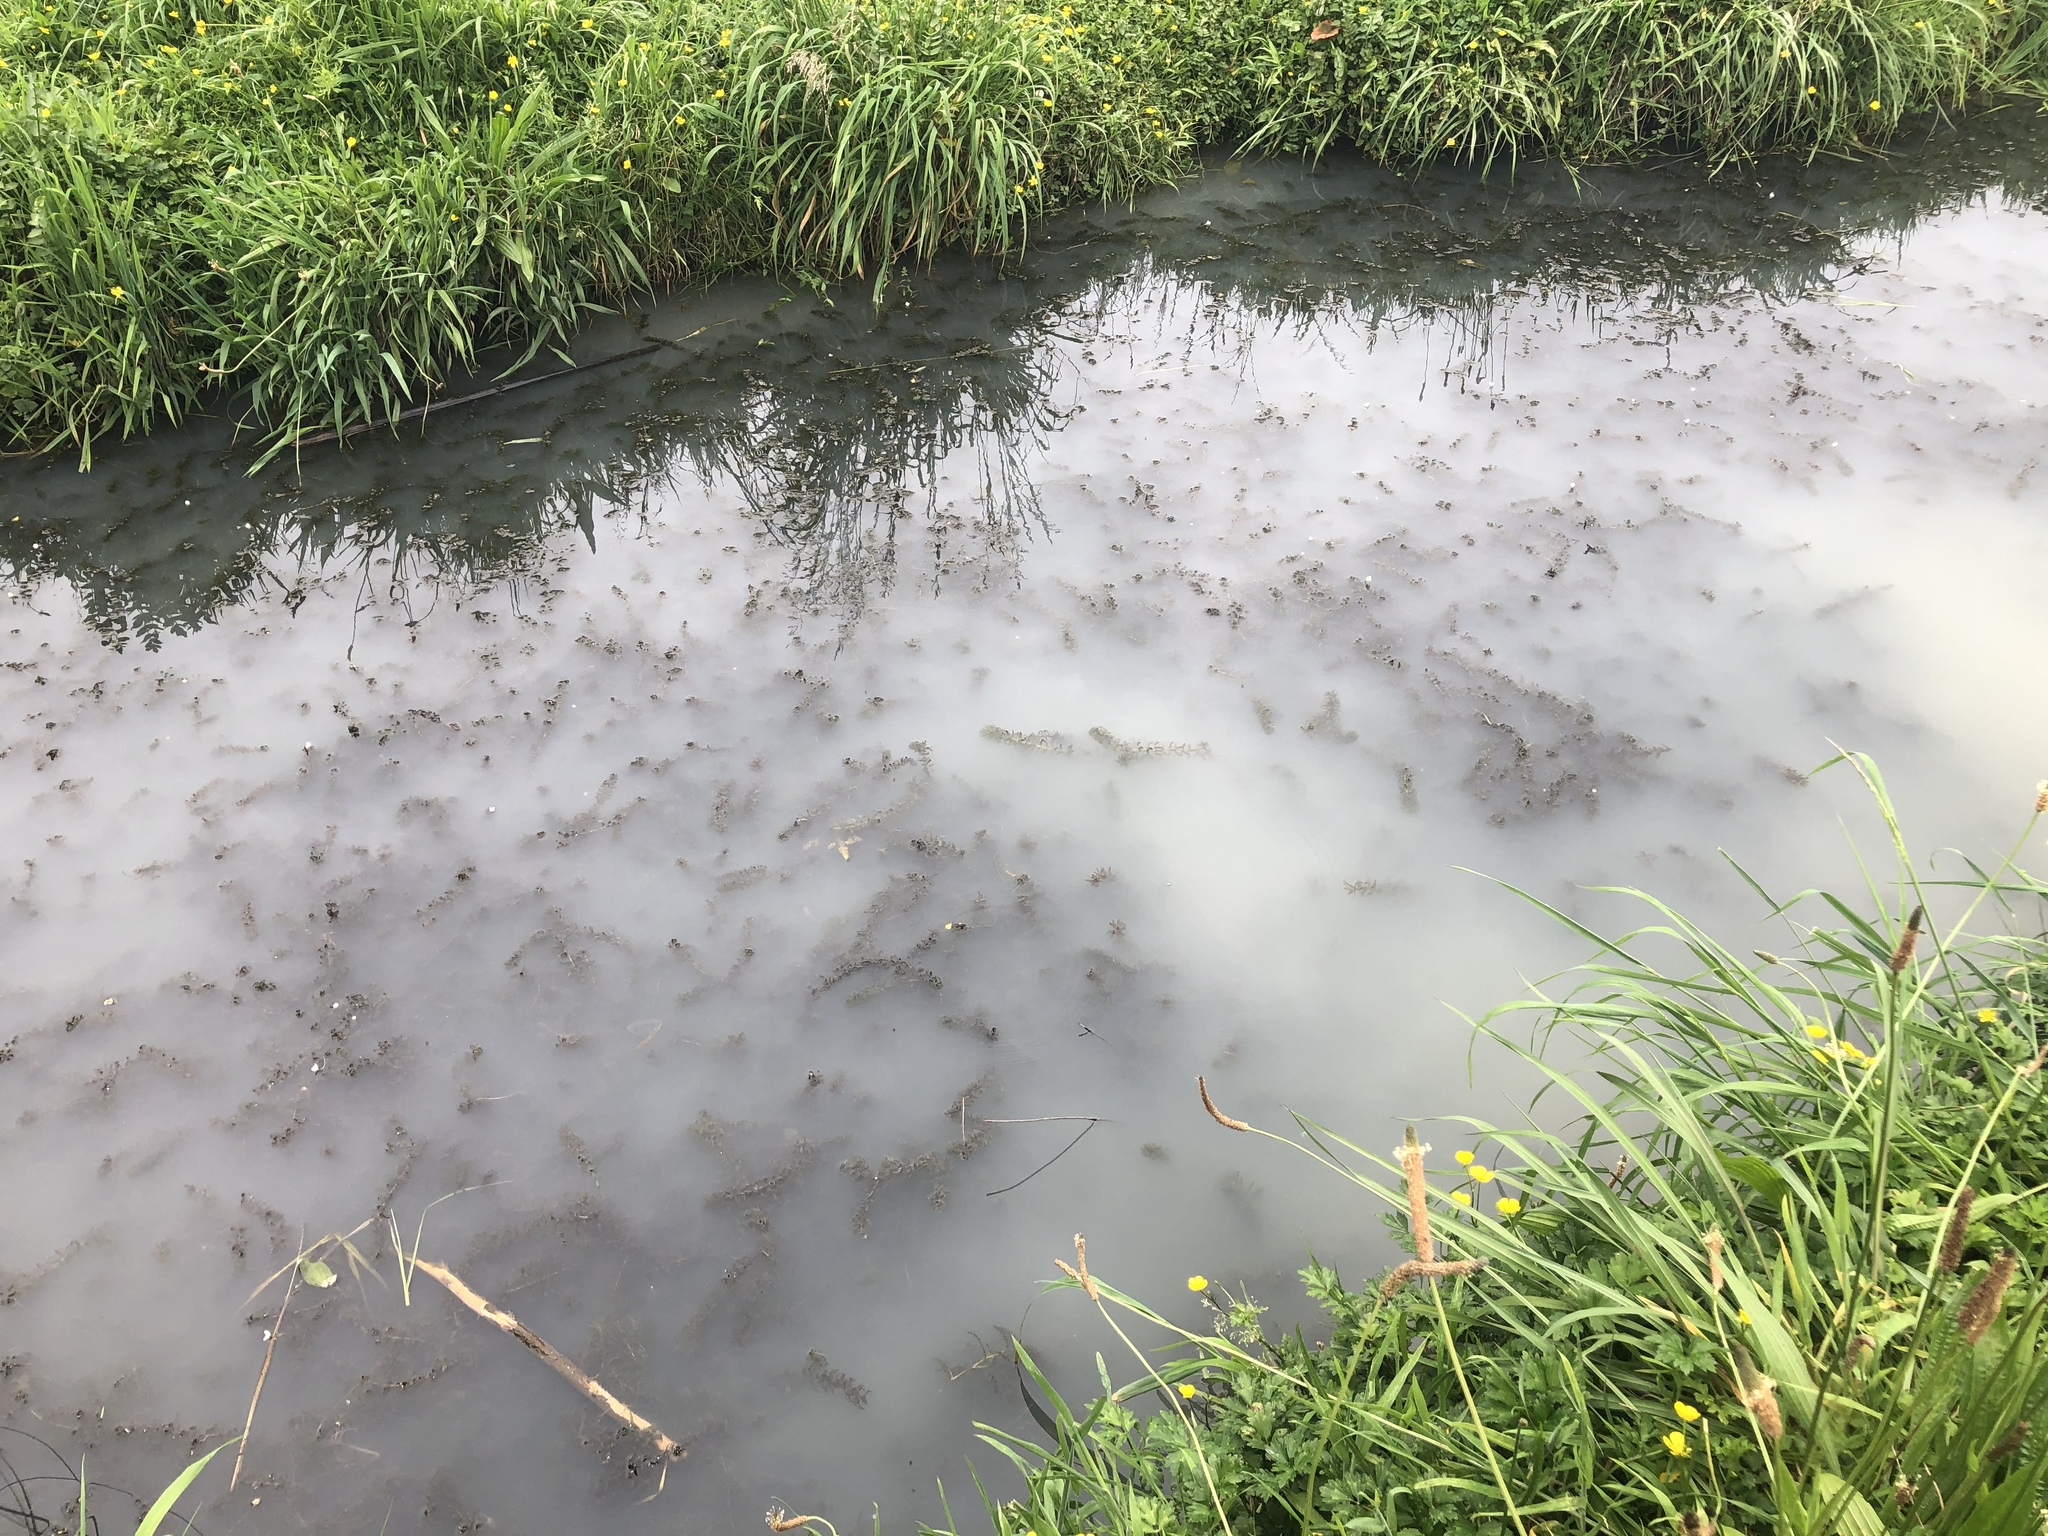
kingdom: Plantae
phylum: Tracheophyta
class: Liliopsida
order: Alismatales
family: Hydrocharitaceae
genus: Elodea
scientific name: Elodea densa
